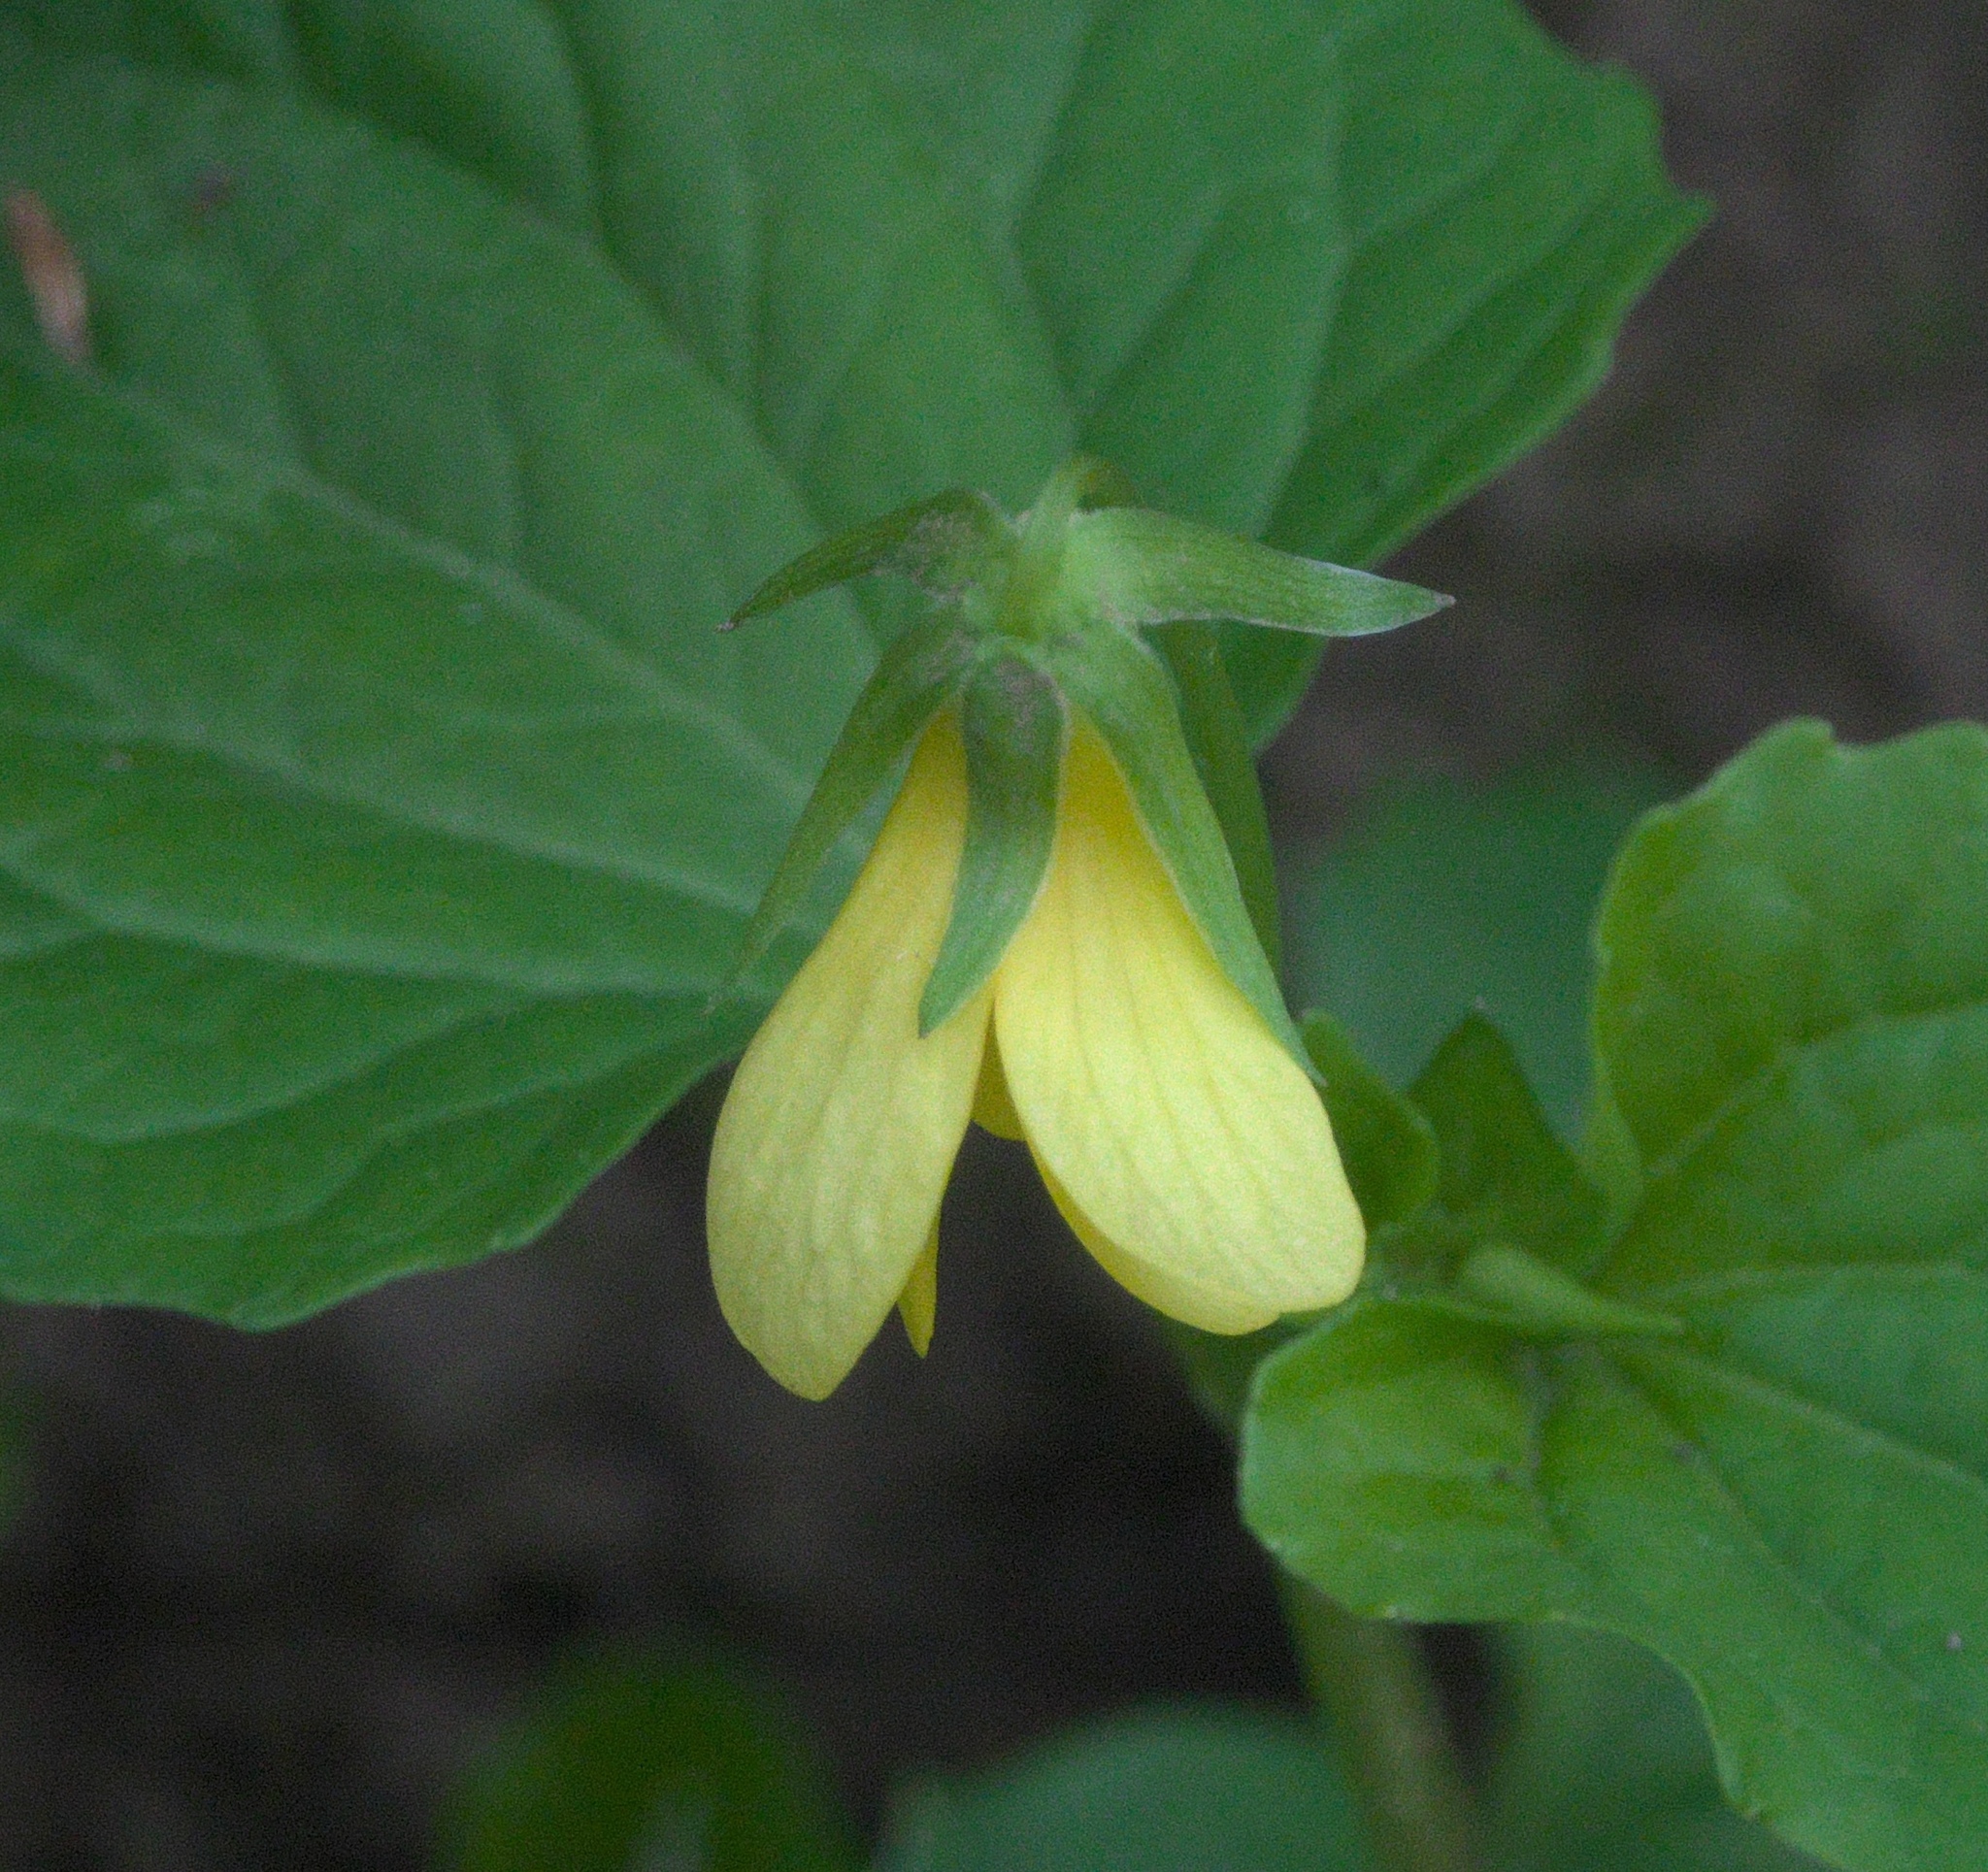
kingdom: Plantae
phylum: Tracheophyta
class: Magnoliopsida
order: Malpighiales
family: Violaceae
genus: Viola
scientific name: Viola eriocarpa
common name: Smooth yellow violet
